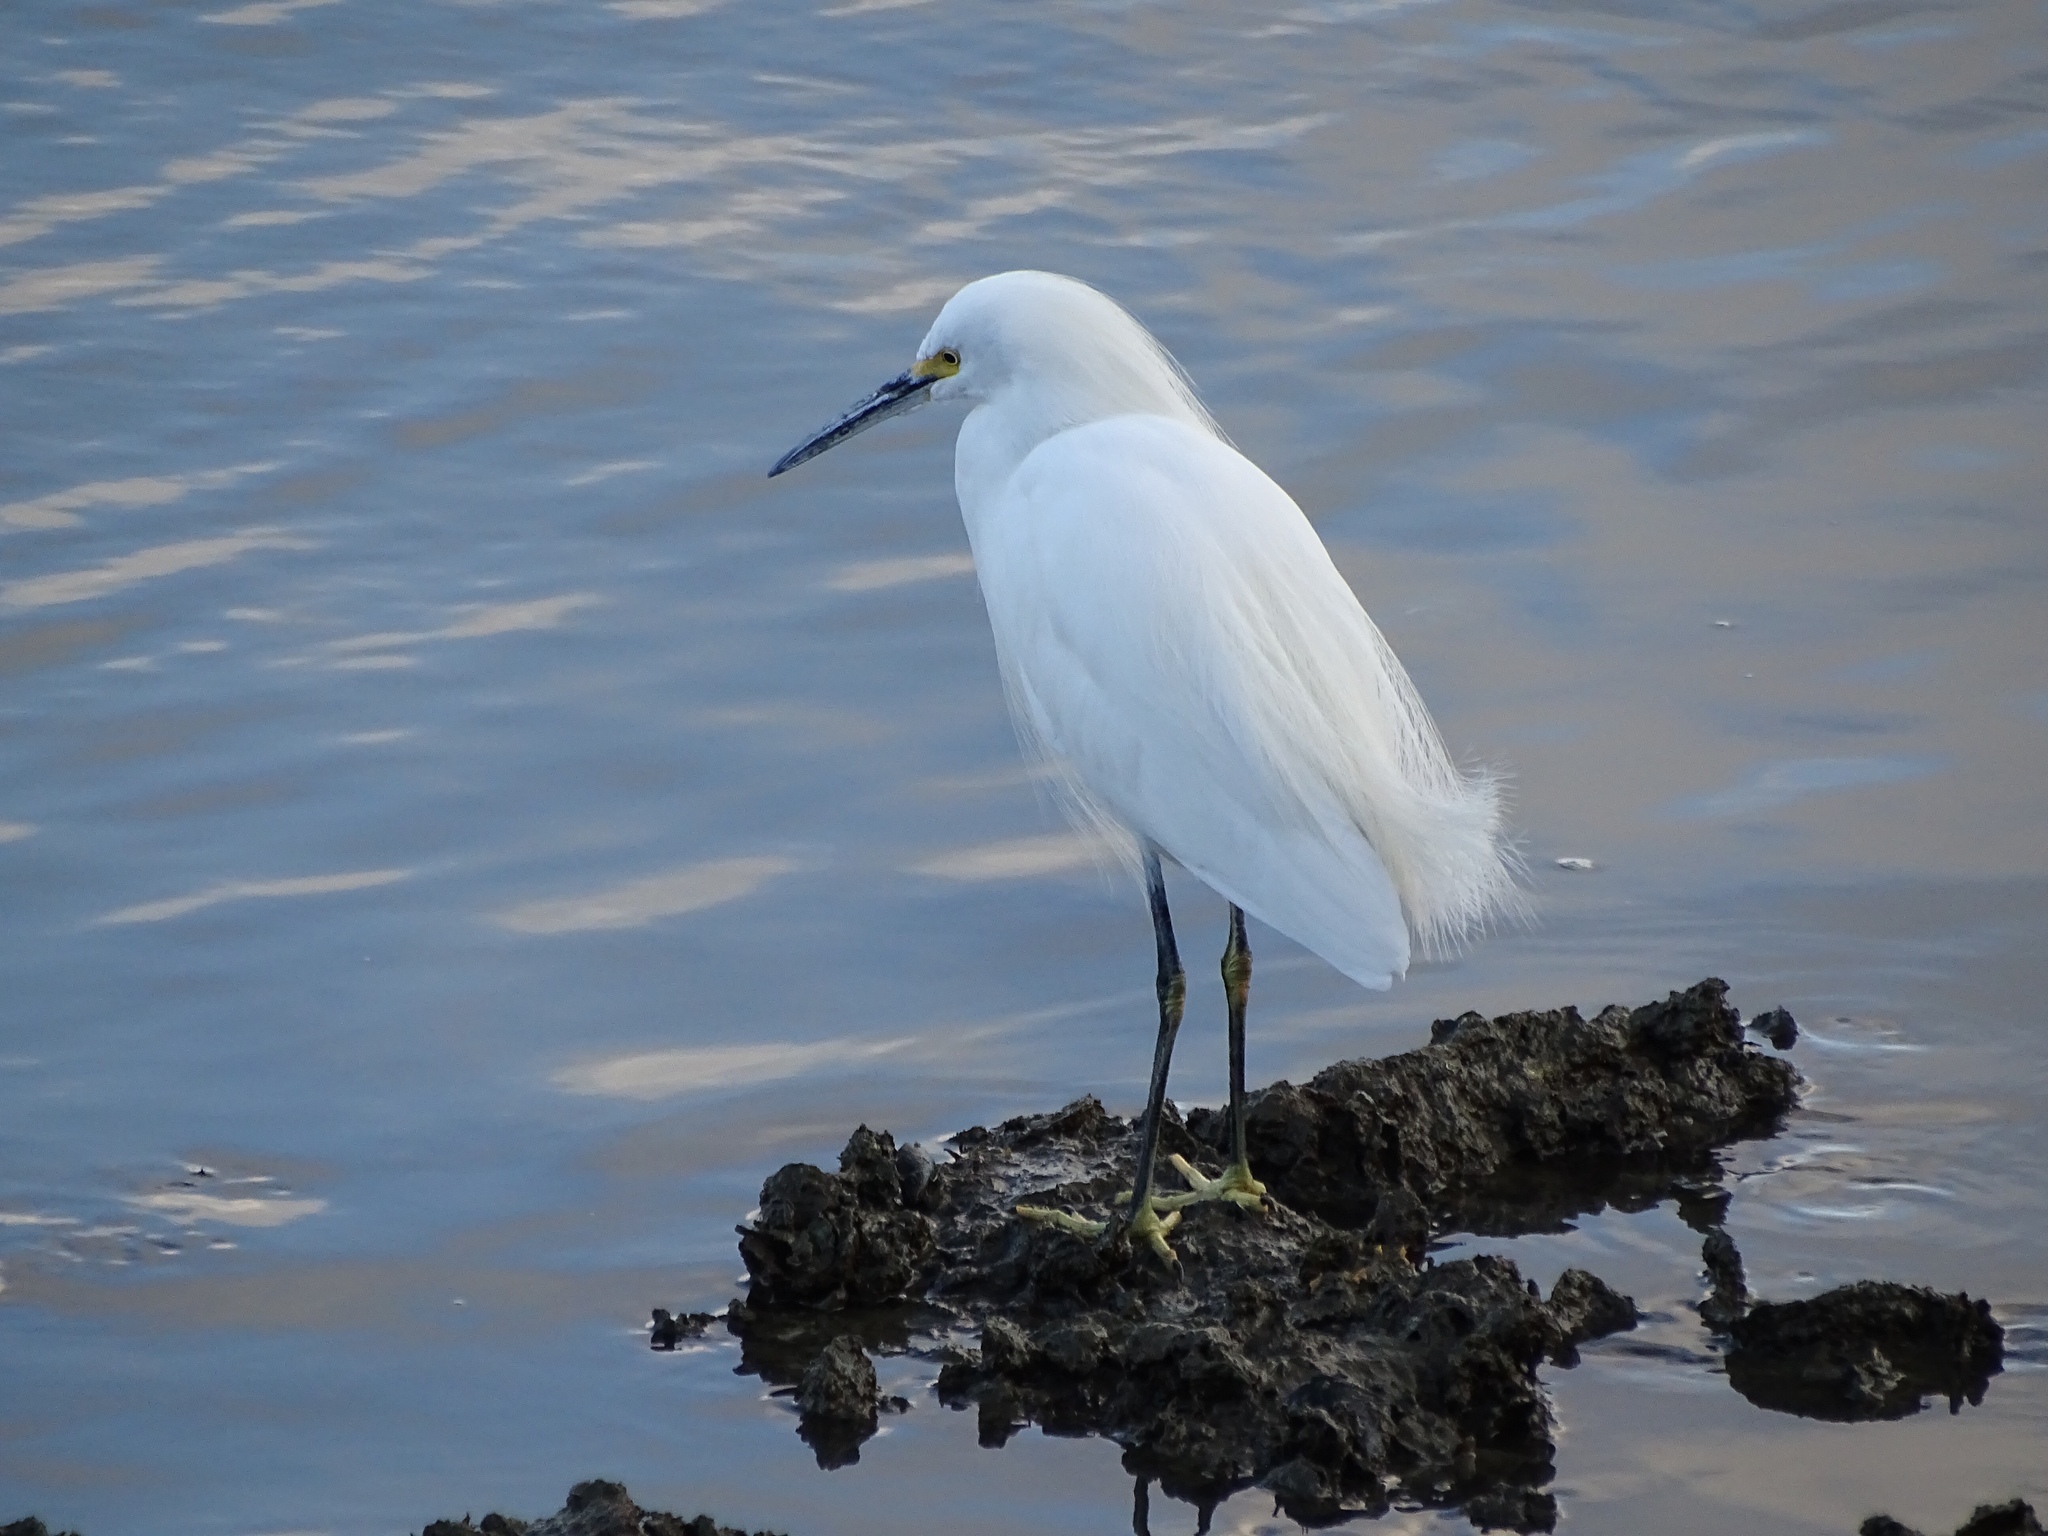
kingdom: Animalia
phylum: Chordata
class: Aves
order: Pelecaniformes
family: Ardeidae
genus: Egretta
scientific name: Egretta thula
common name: Snowy egret
